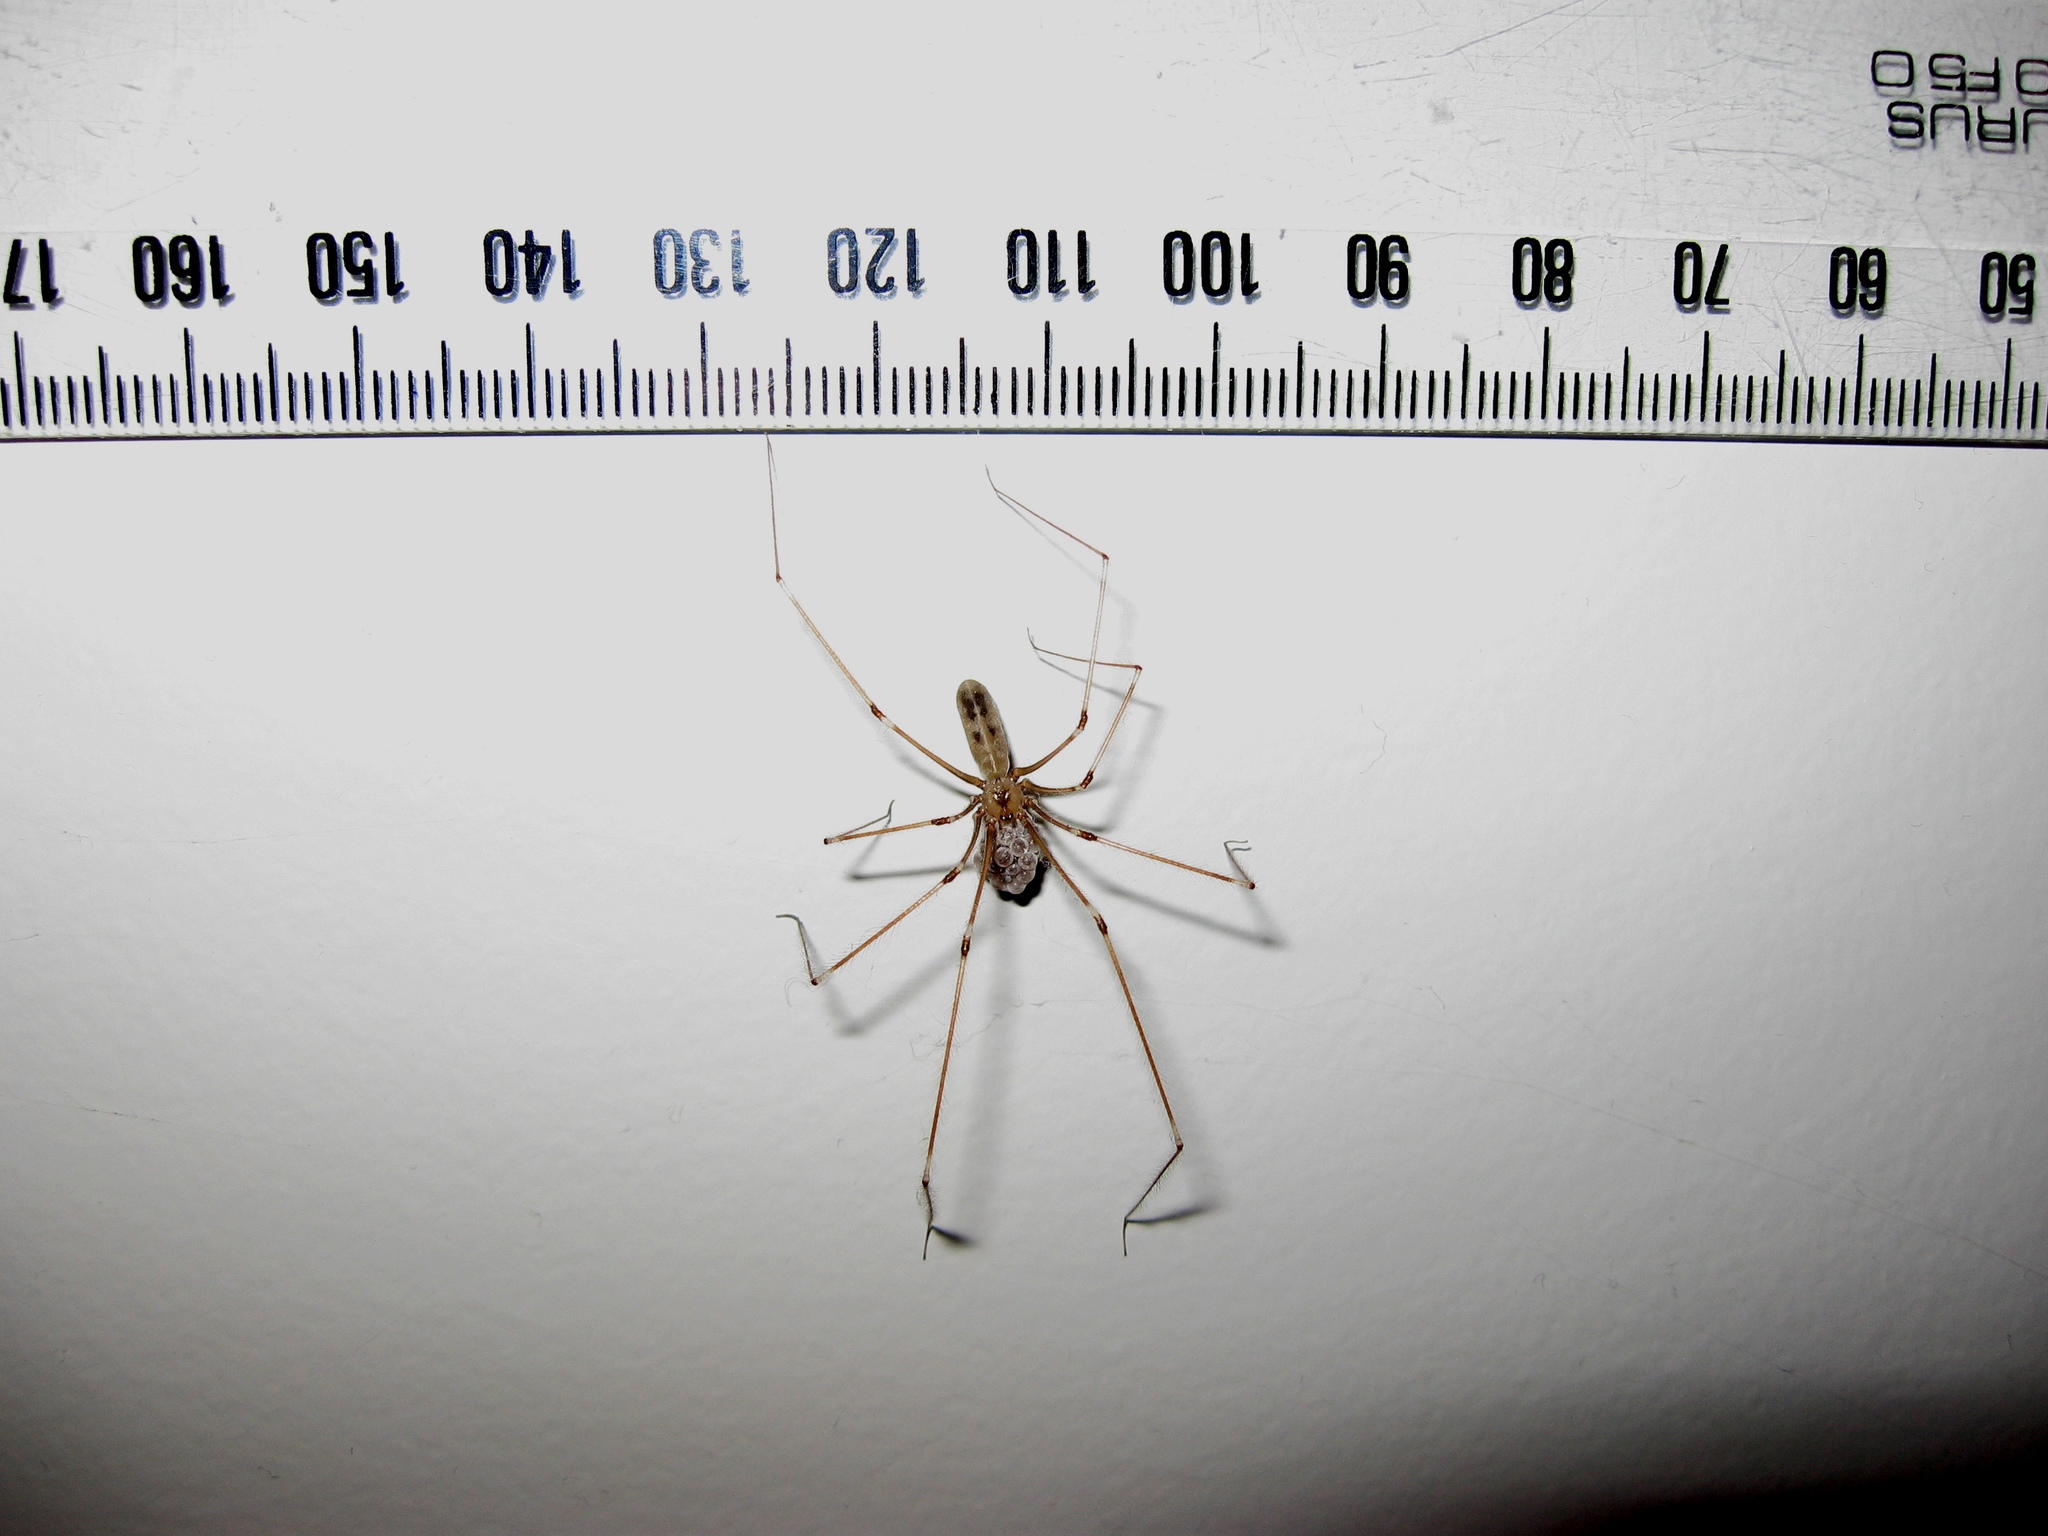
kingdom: Animalia
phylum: Arthropoda
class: Arachnida
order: Araneae
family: Pholcidae
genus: Pholcus
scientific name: Pholcus phalangioides
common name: Longbodied cellar spider
